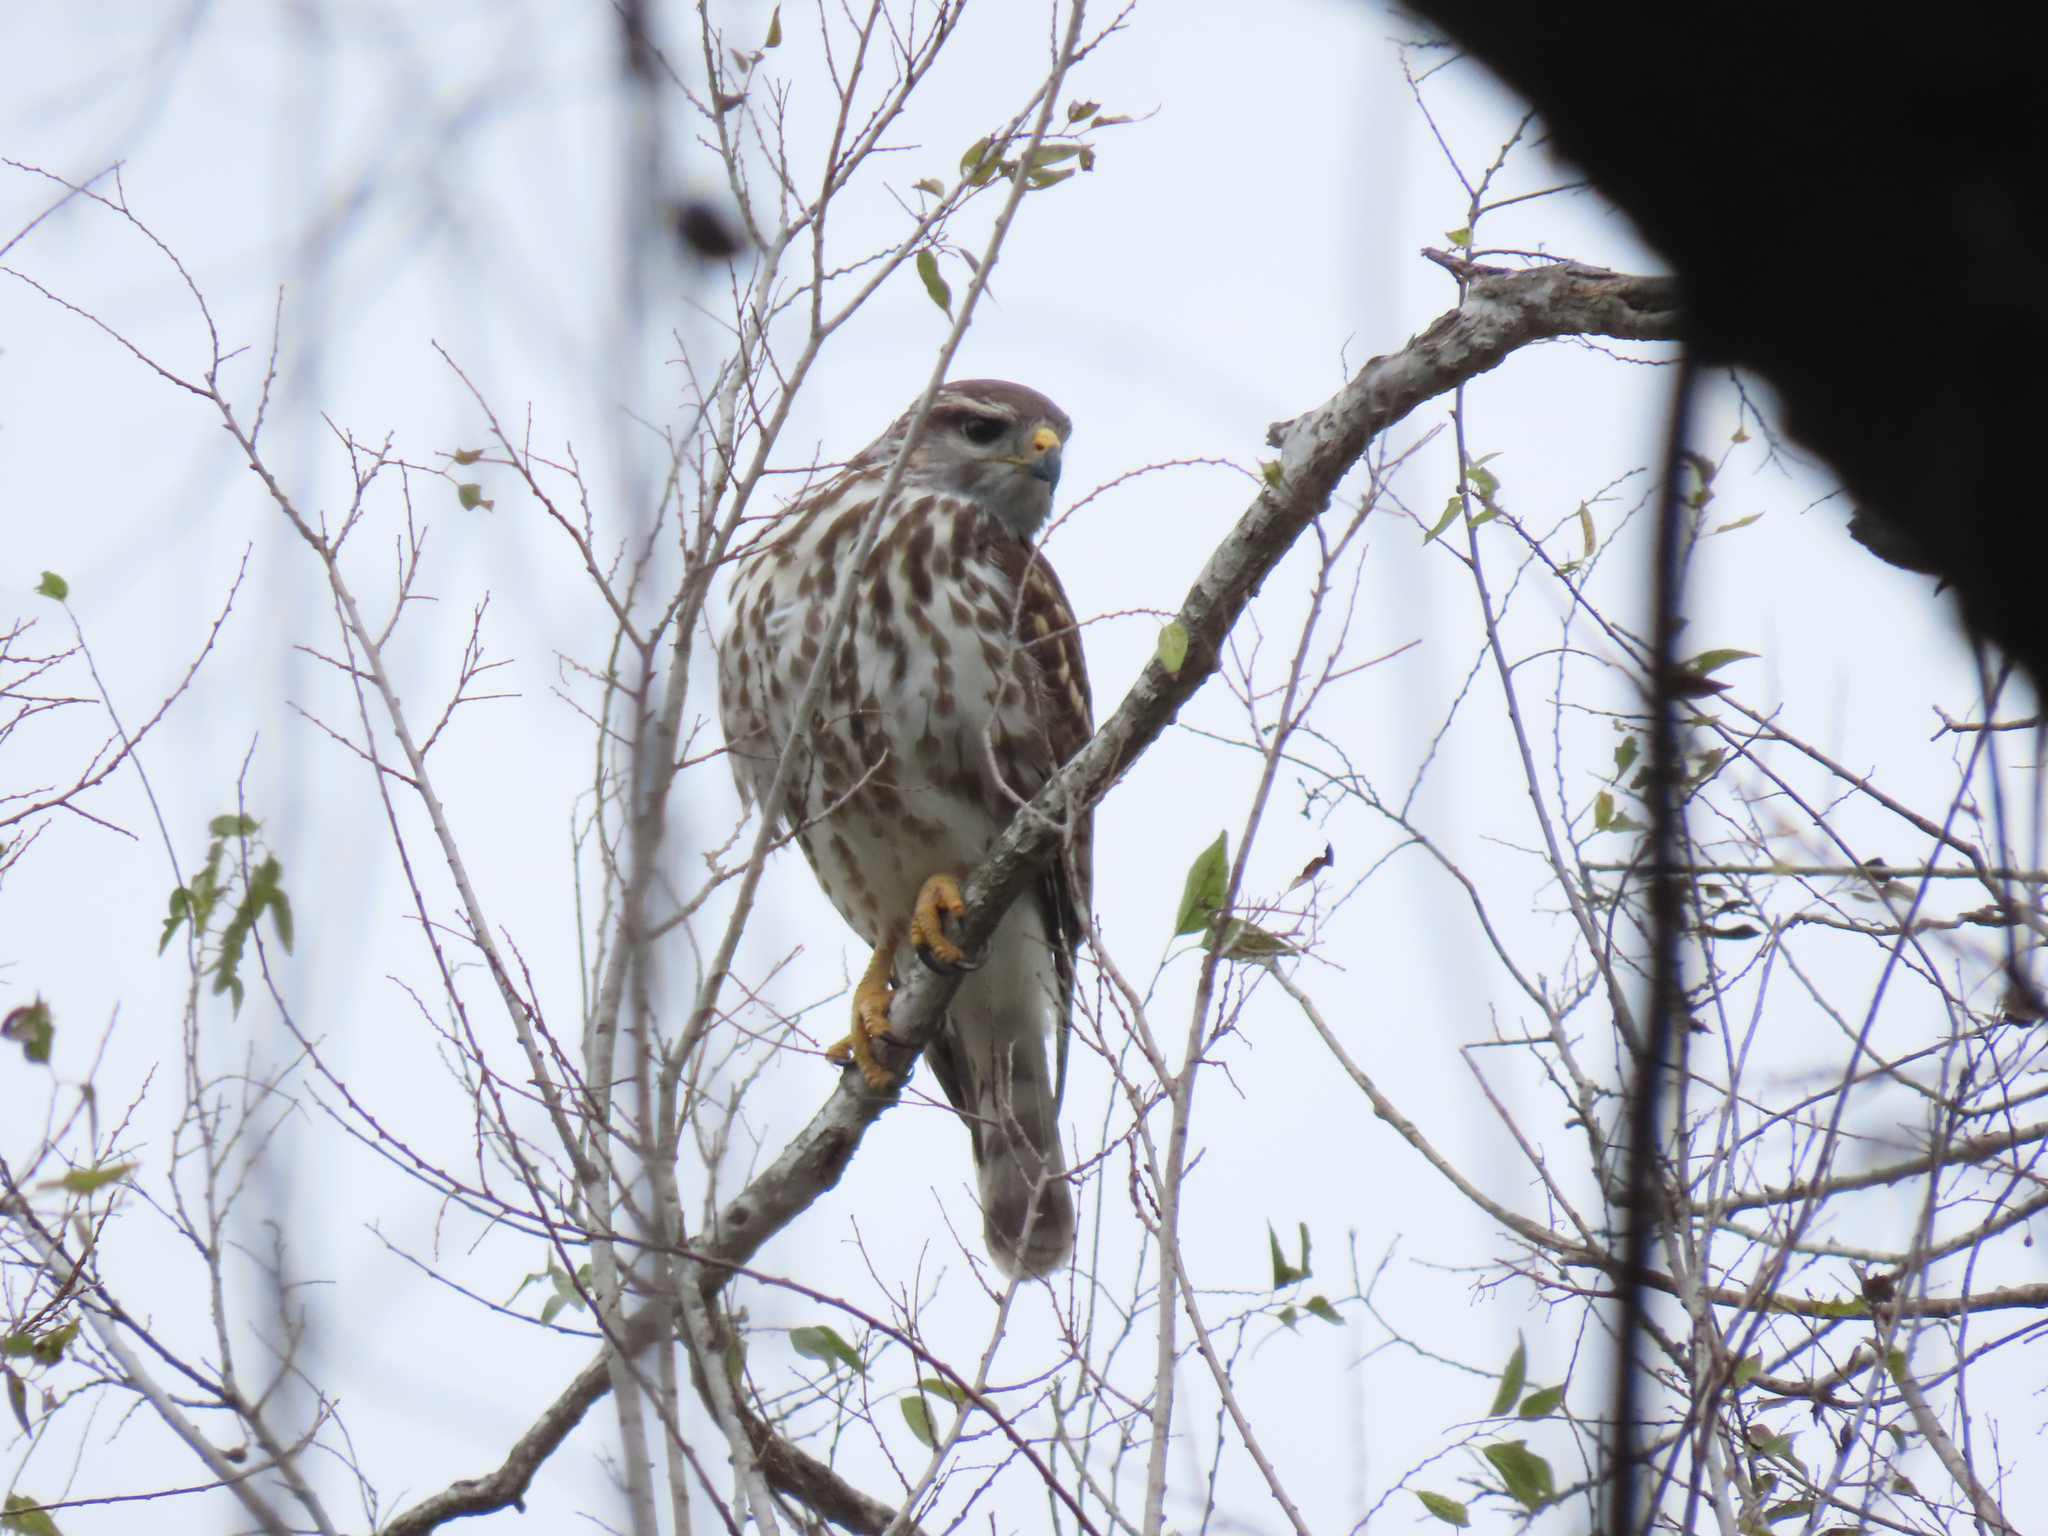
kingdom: Animalia
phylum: Chordata
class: Aves
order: Accipitriformes
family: Accipitridae
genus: Buteo
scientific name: Buteo nitidus
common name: Grey-lined hawk
